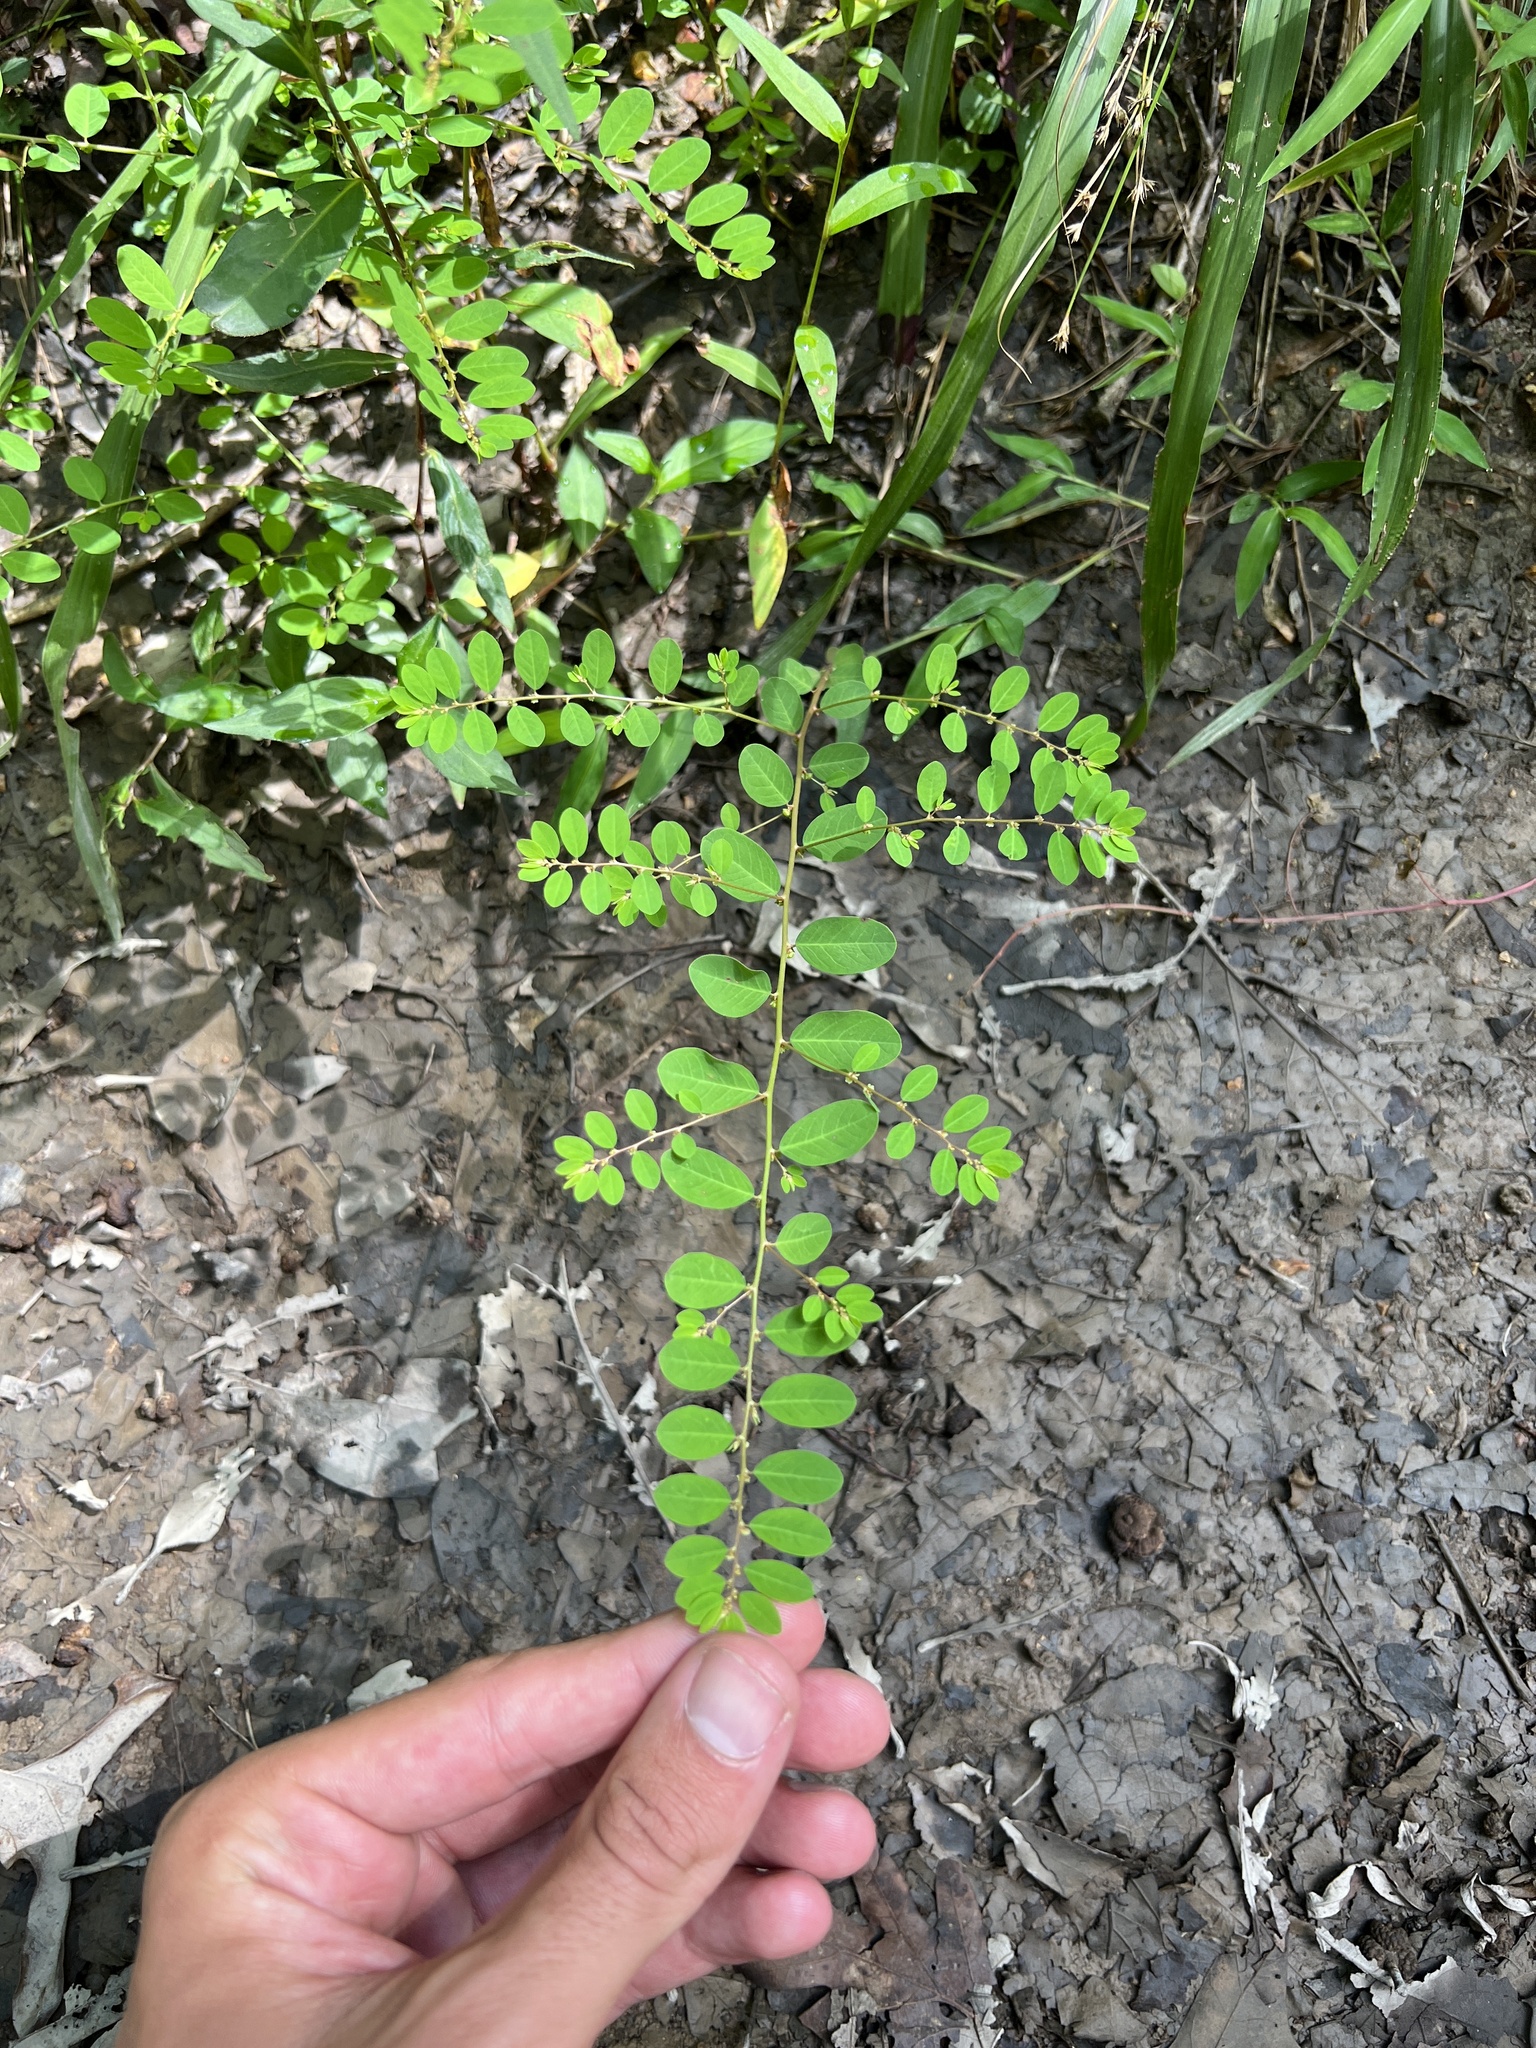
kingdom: Plantae
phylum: Tracheophyta
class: Magnoliopsida
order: Malpighiales
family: Phyllanthaceae
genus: Phyllanthus
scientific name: Phyllanthus caroliniensis
